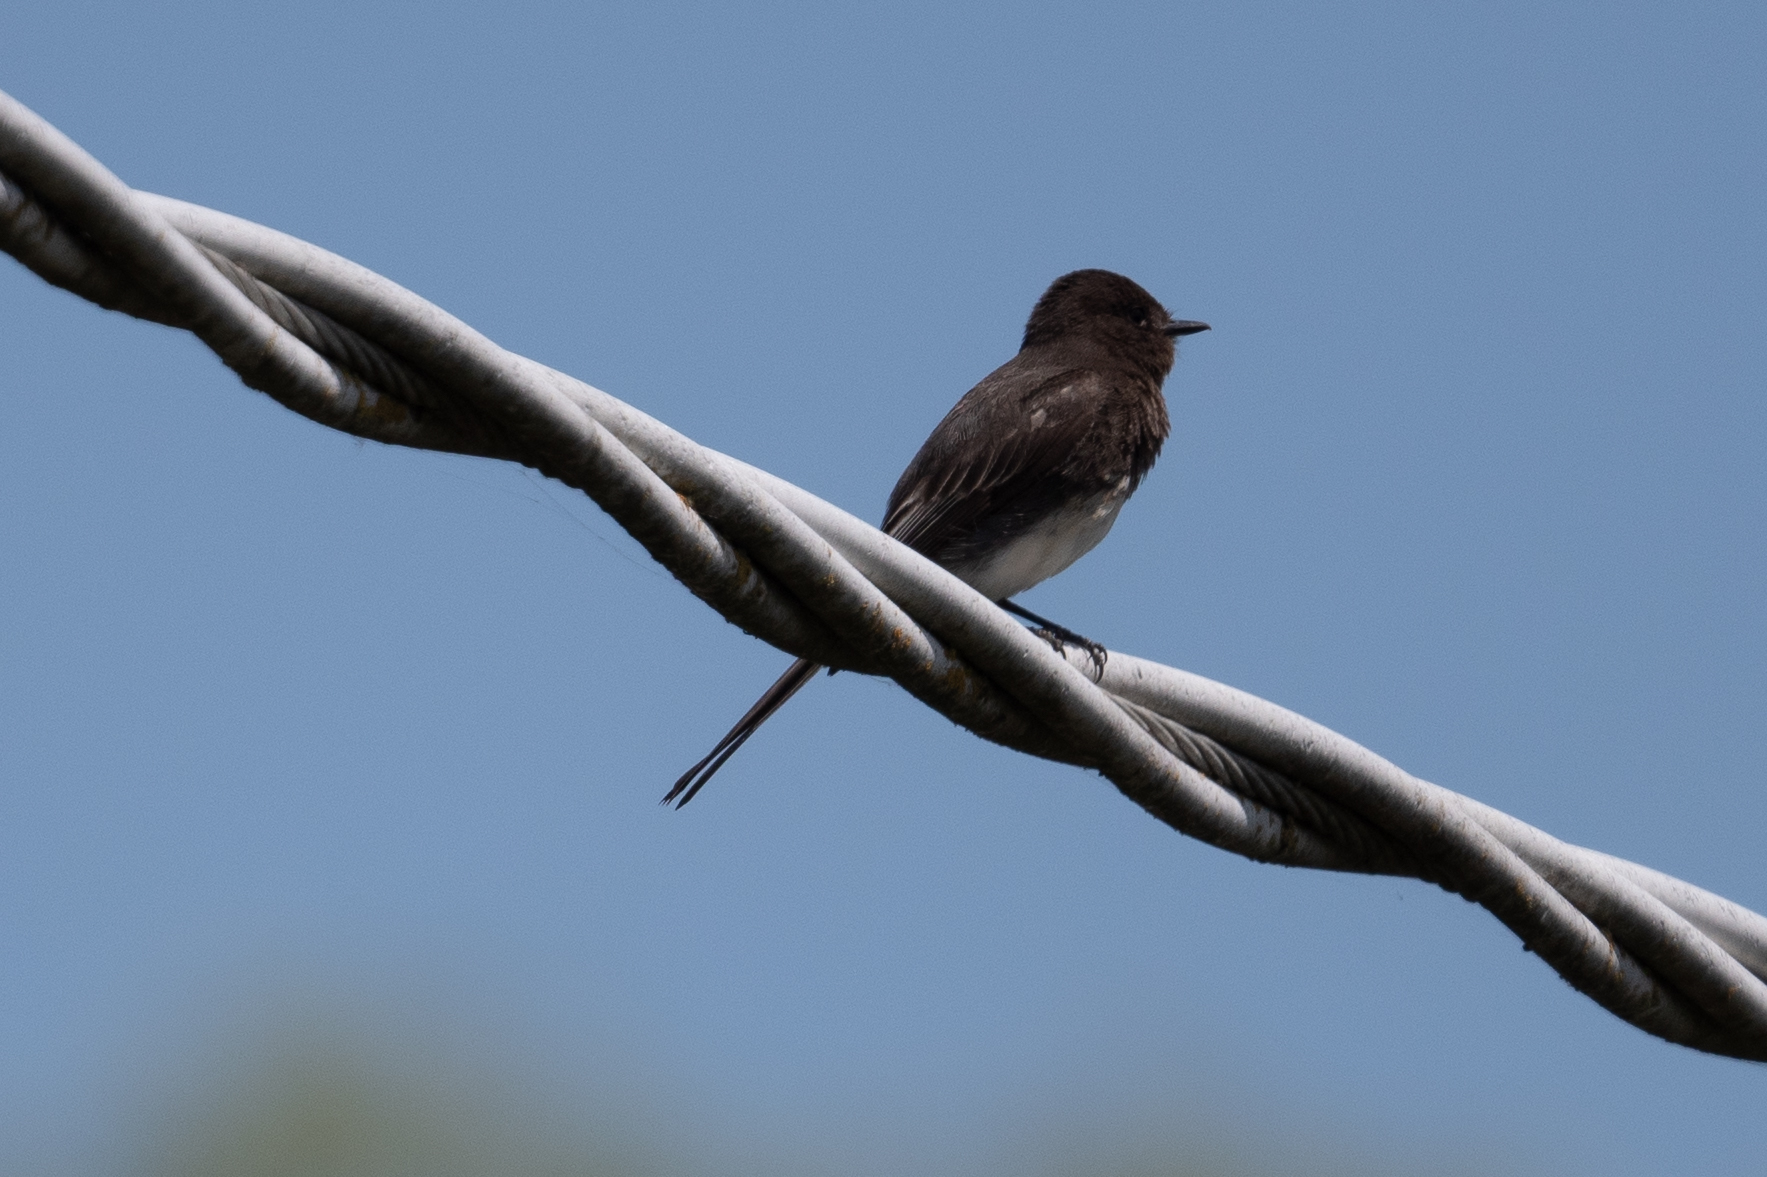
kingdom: Animalia
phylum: Chordata
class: Aves
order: Passeriformes
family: Tyrannidae
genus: Sayornis
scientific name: Sayornis nigricans
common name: Black phoebe
